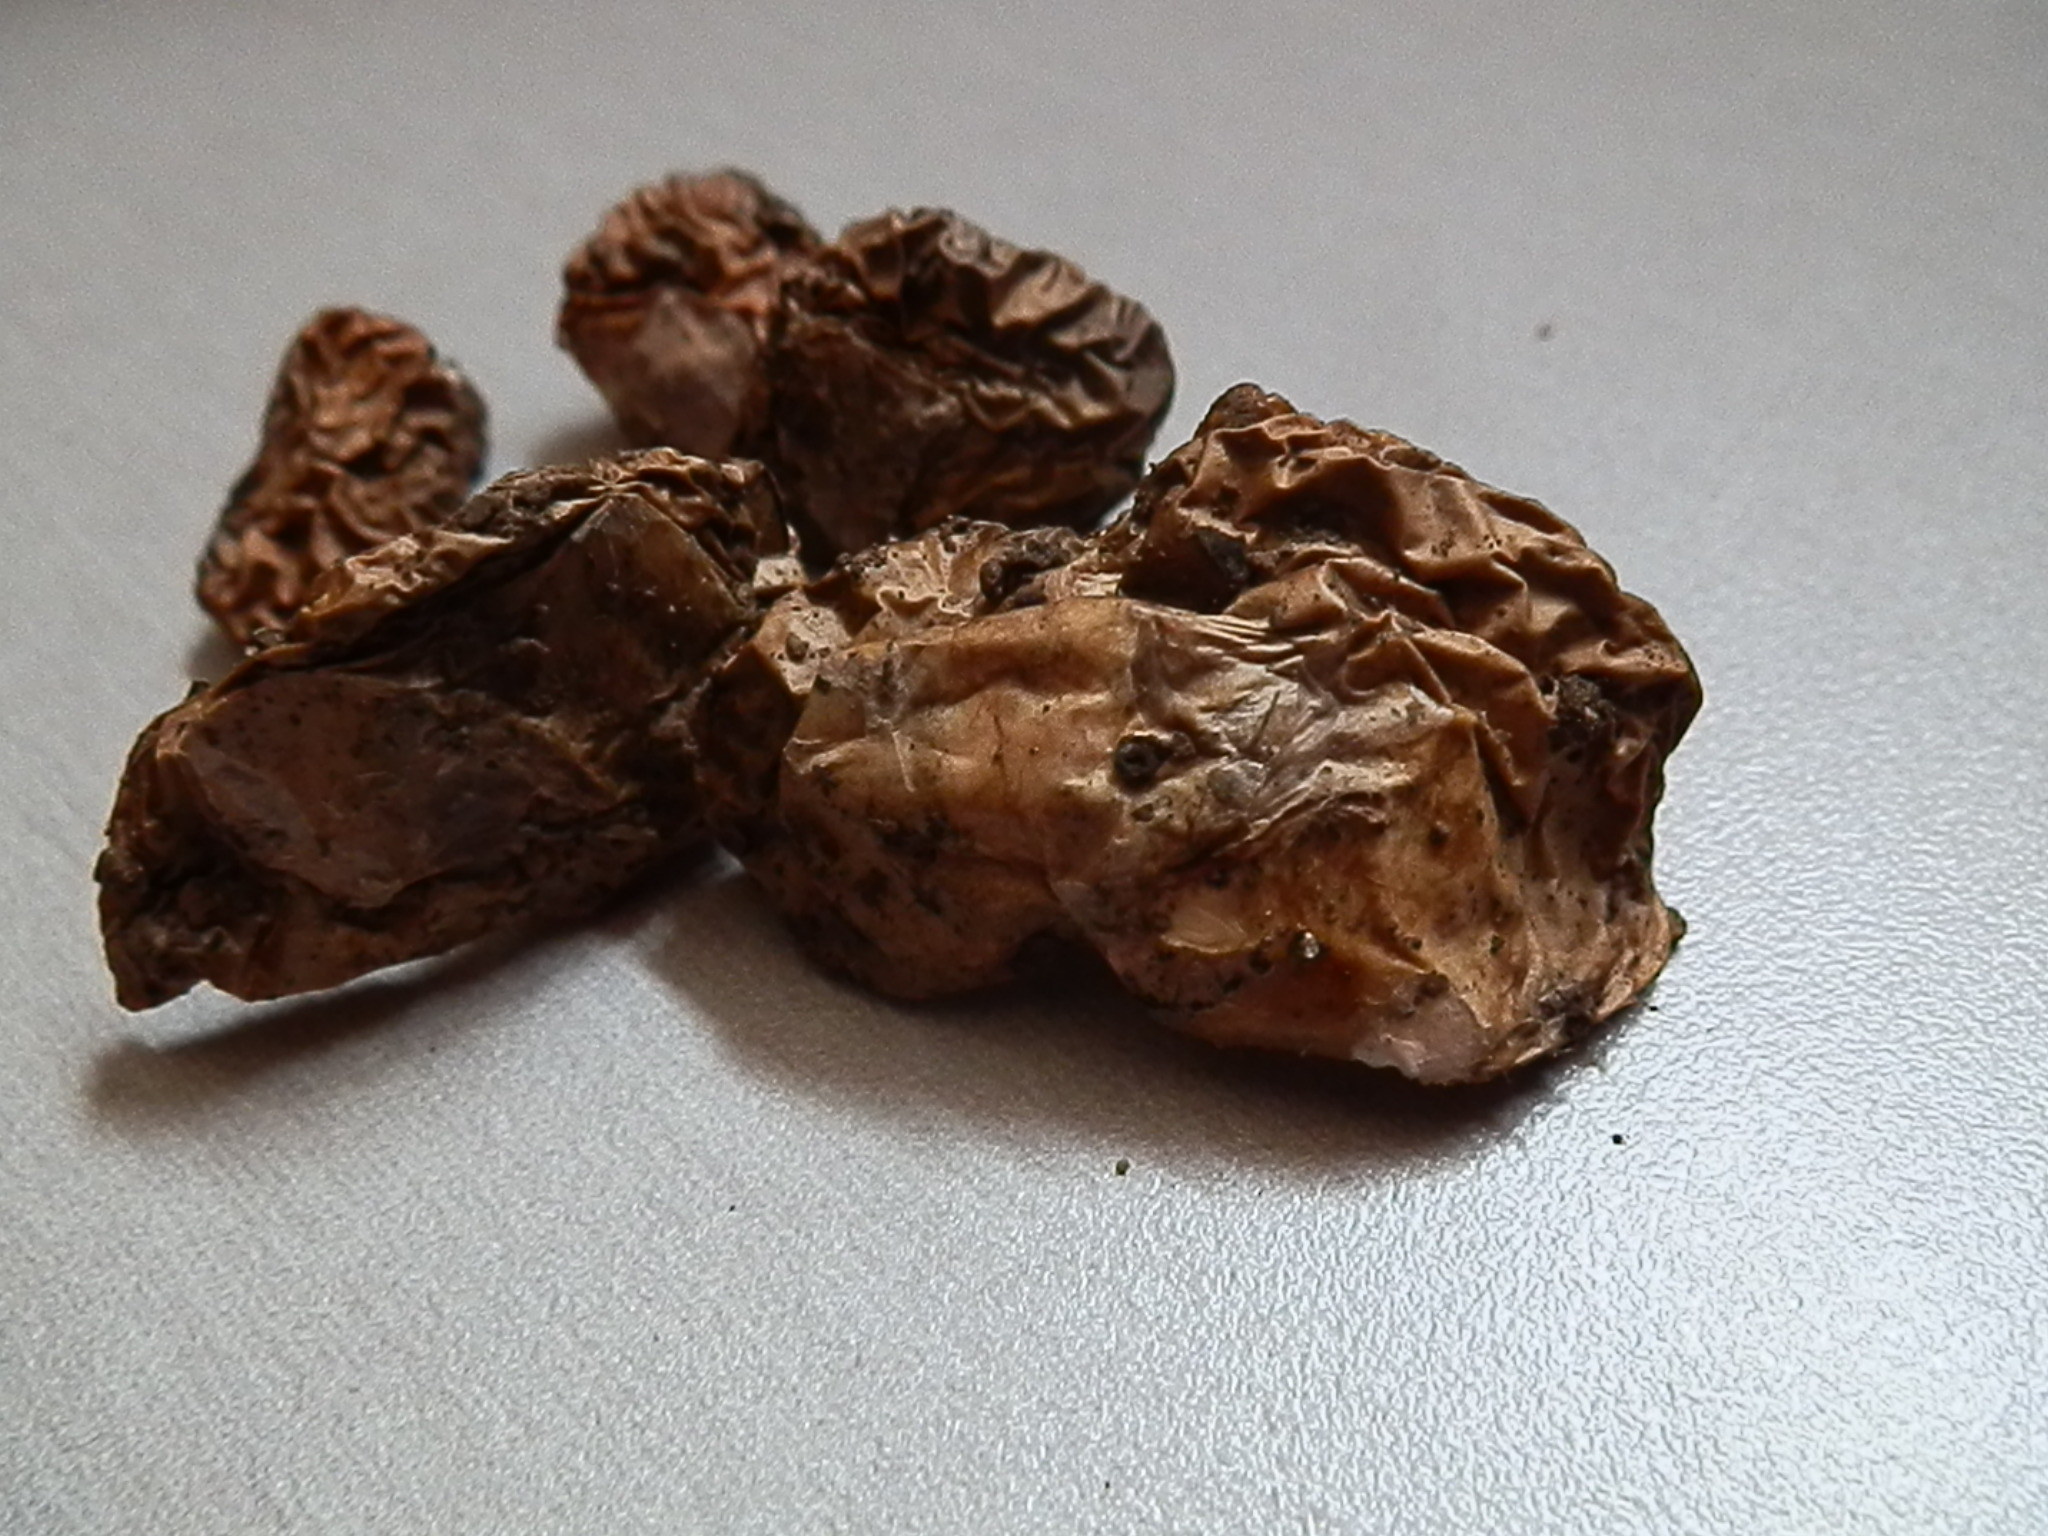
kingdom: Fungi
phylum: Basidiomycota
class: Agaricomycetes
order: Boletales
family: Suillaceae
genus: Suillus
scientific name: Suillus occidentalis
